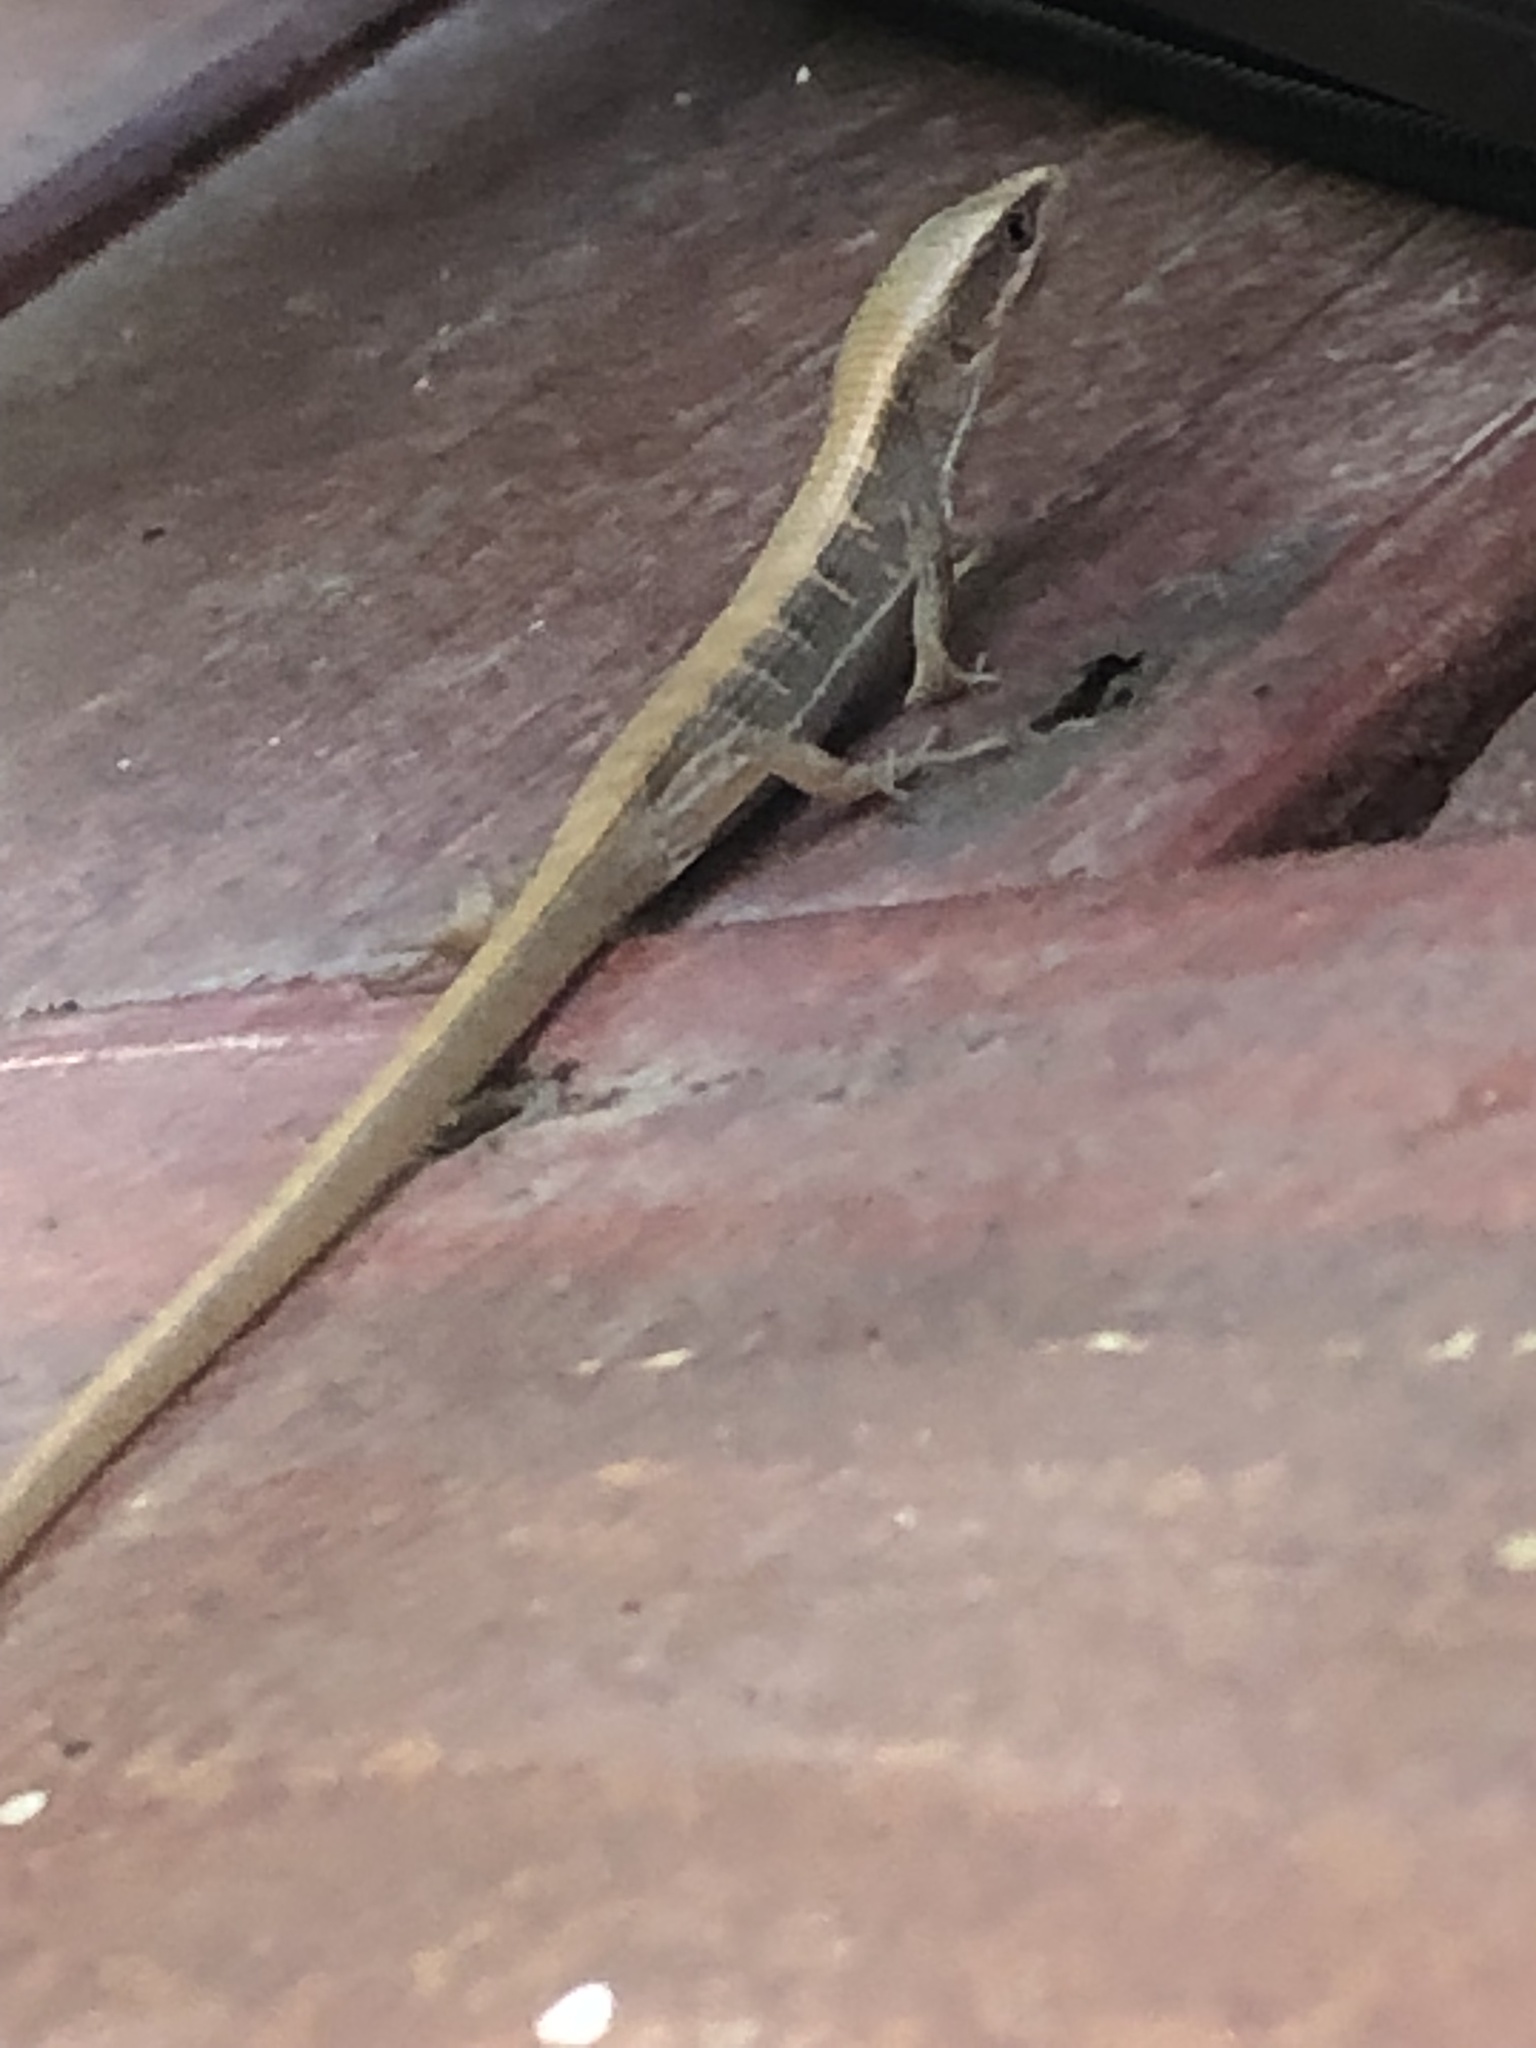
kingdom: Animalia
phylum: Chordata
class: Squamata
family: Anguidae
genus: Elgaria
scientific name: Elgaria multicarinata
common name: Southern alligator lizard
